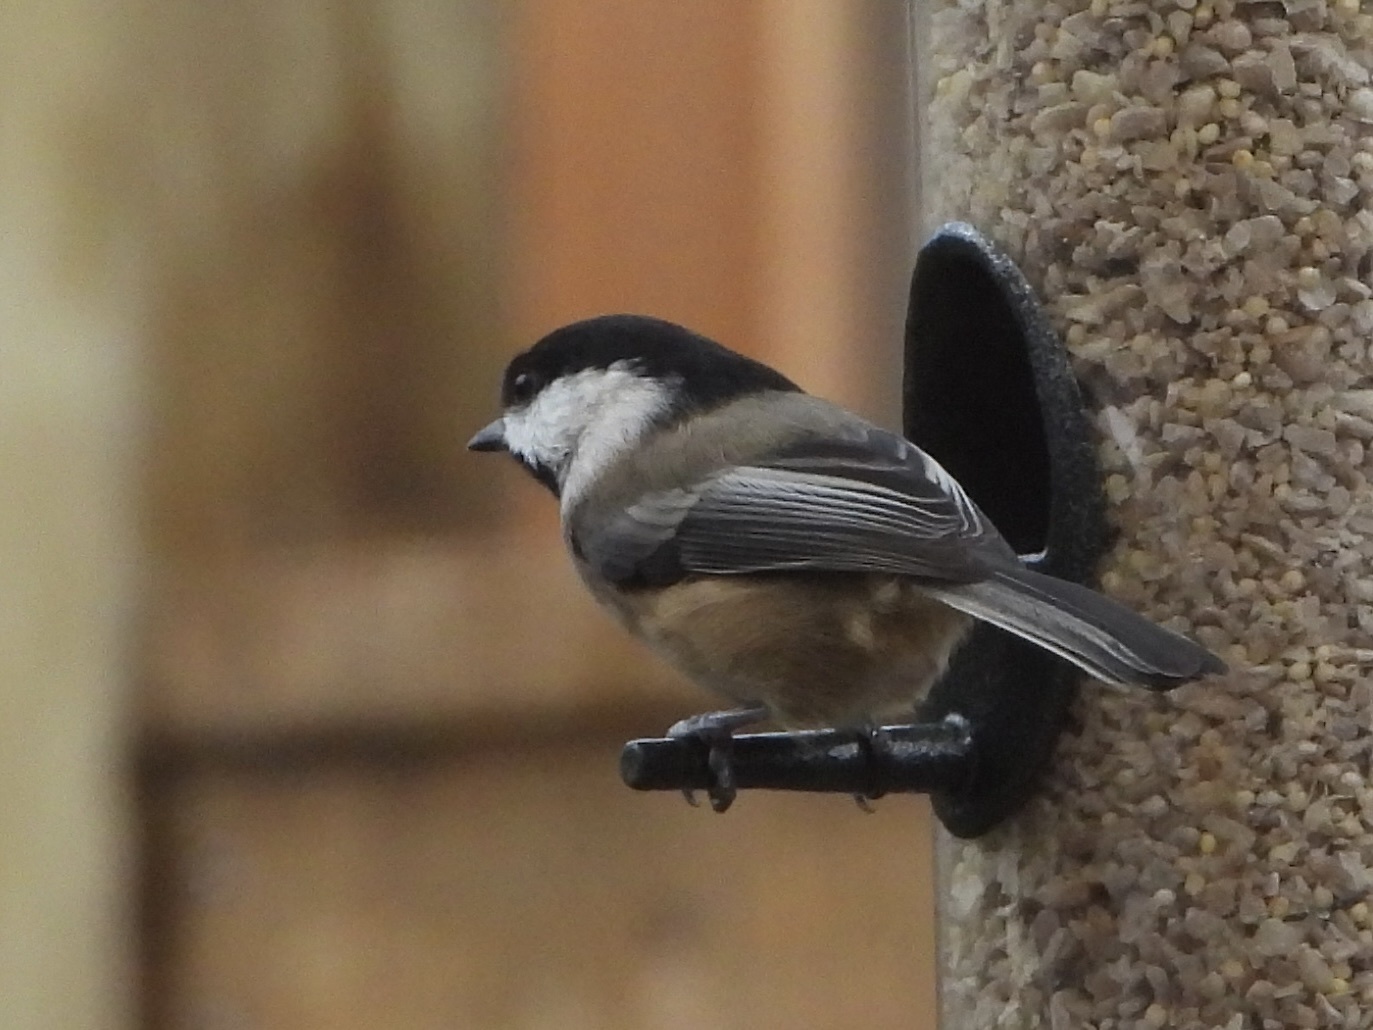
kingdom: Animalia
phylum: Chordata
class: Aves
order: Passeriformes
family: Paridae
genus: Poecile
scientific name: Poecile atricapillus
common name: Black-capped chickadee
